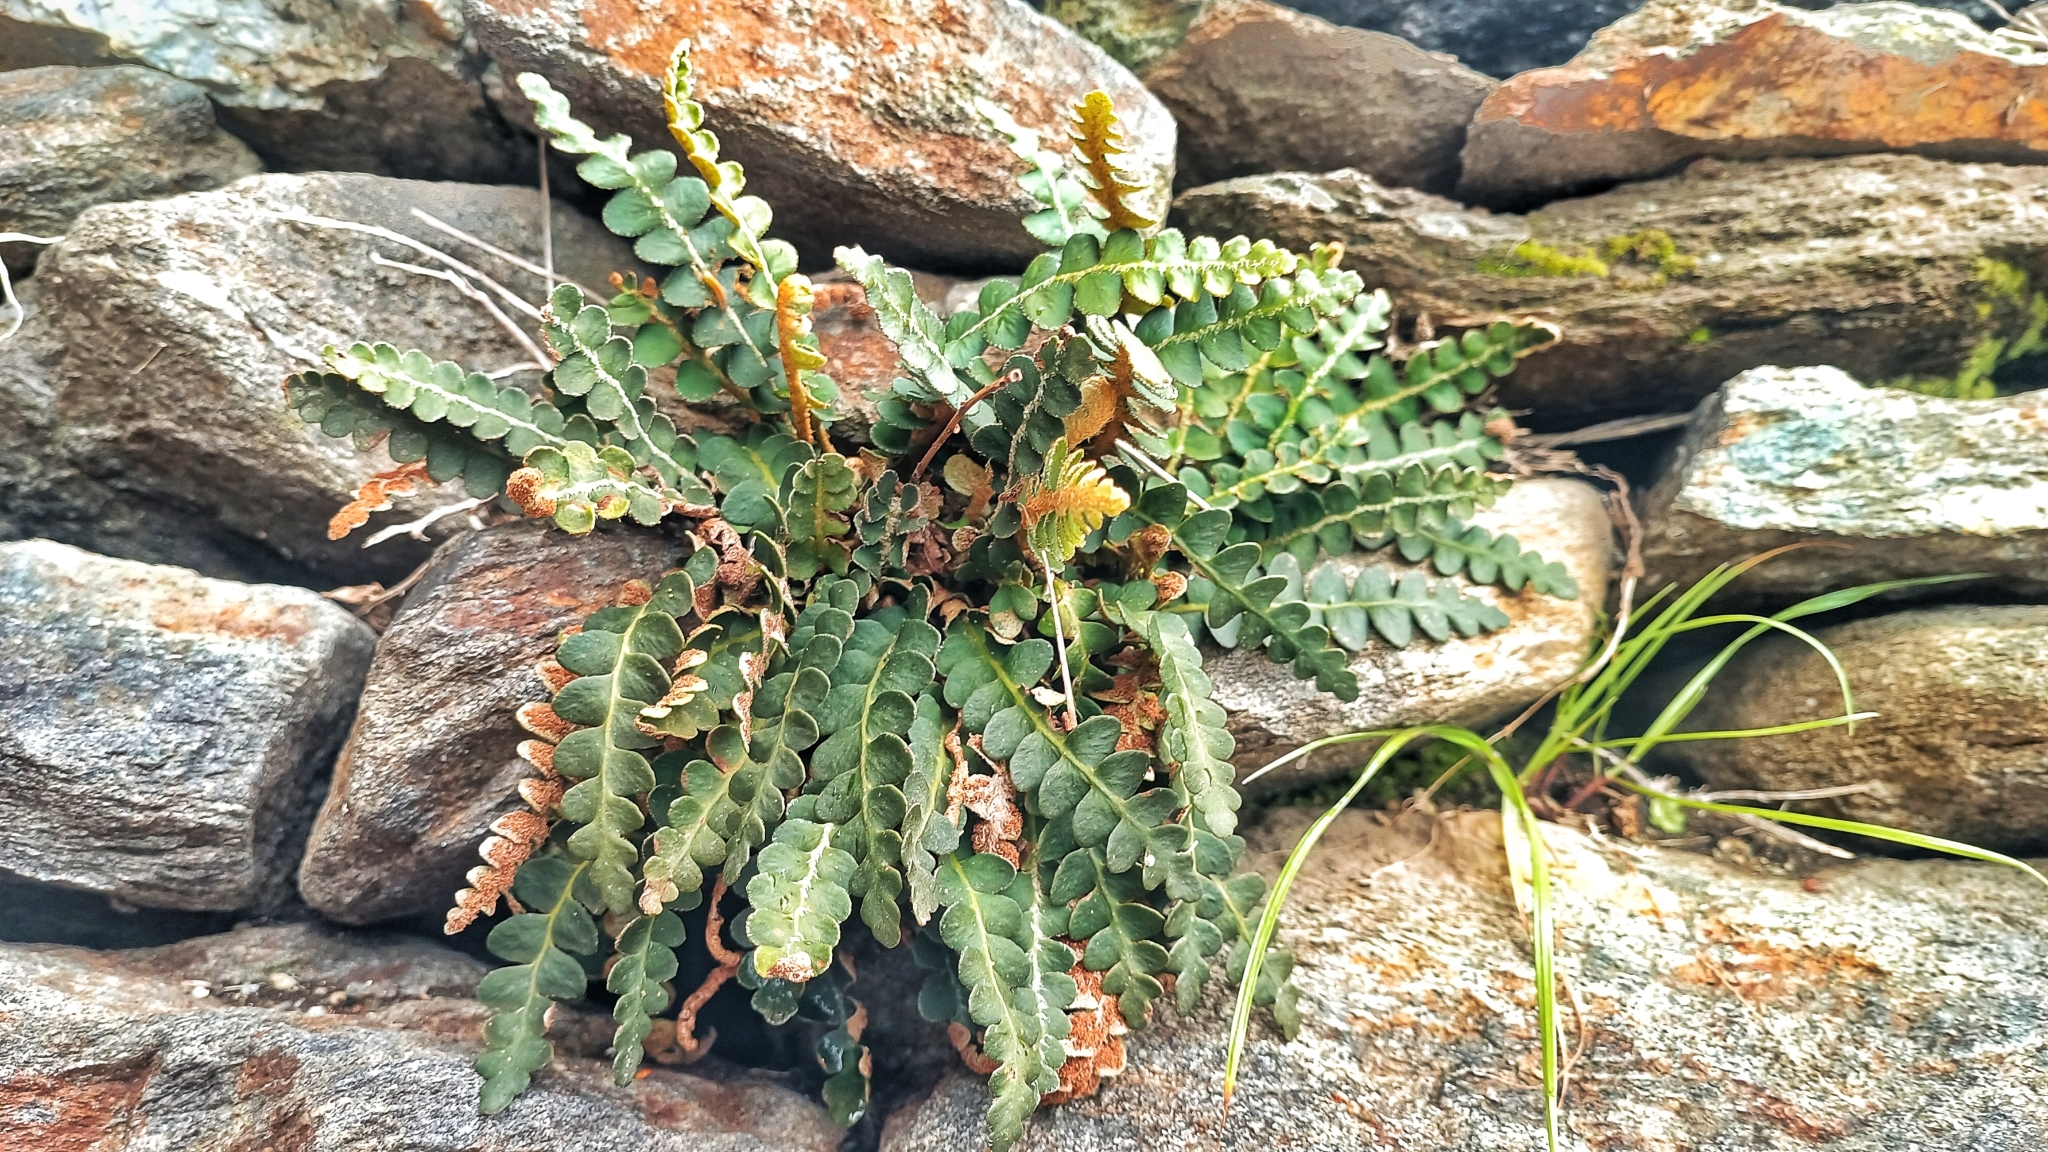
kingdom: Plantae
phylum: Tracheophyta
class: Polypodiopsida
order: Polypodiales
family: Aspleniaceae
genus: Asplenium
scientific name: Asplenium ceterach
